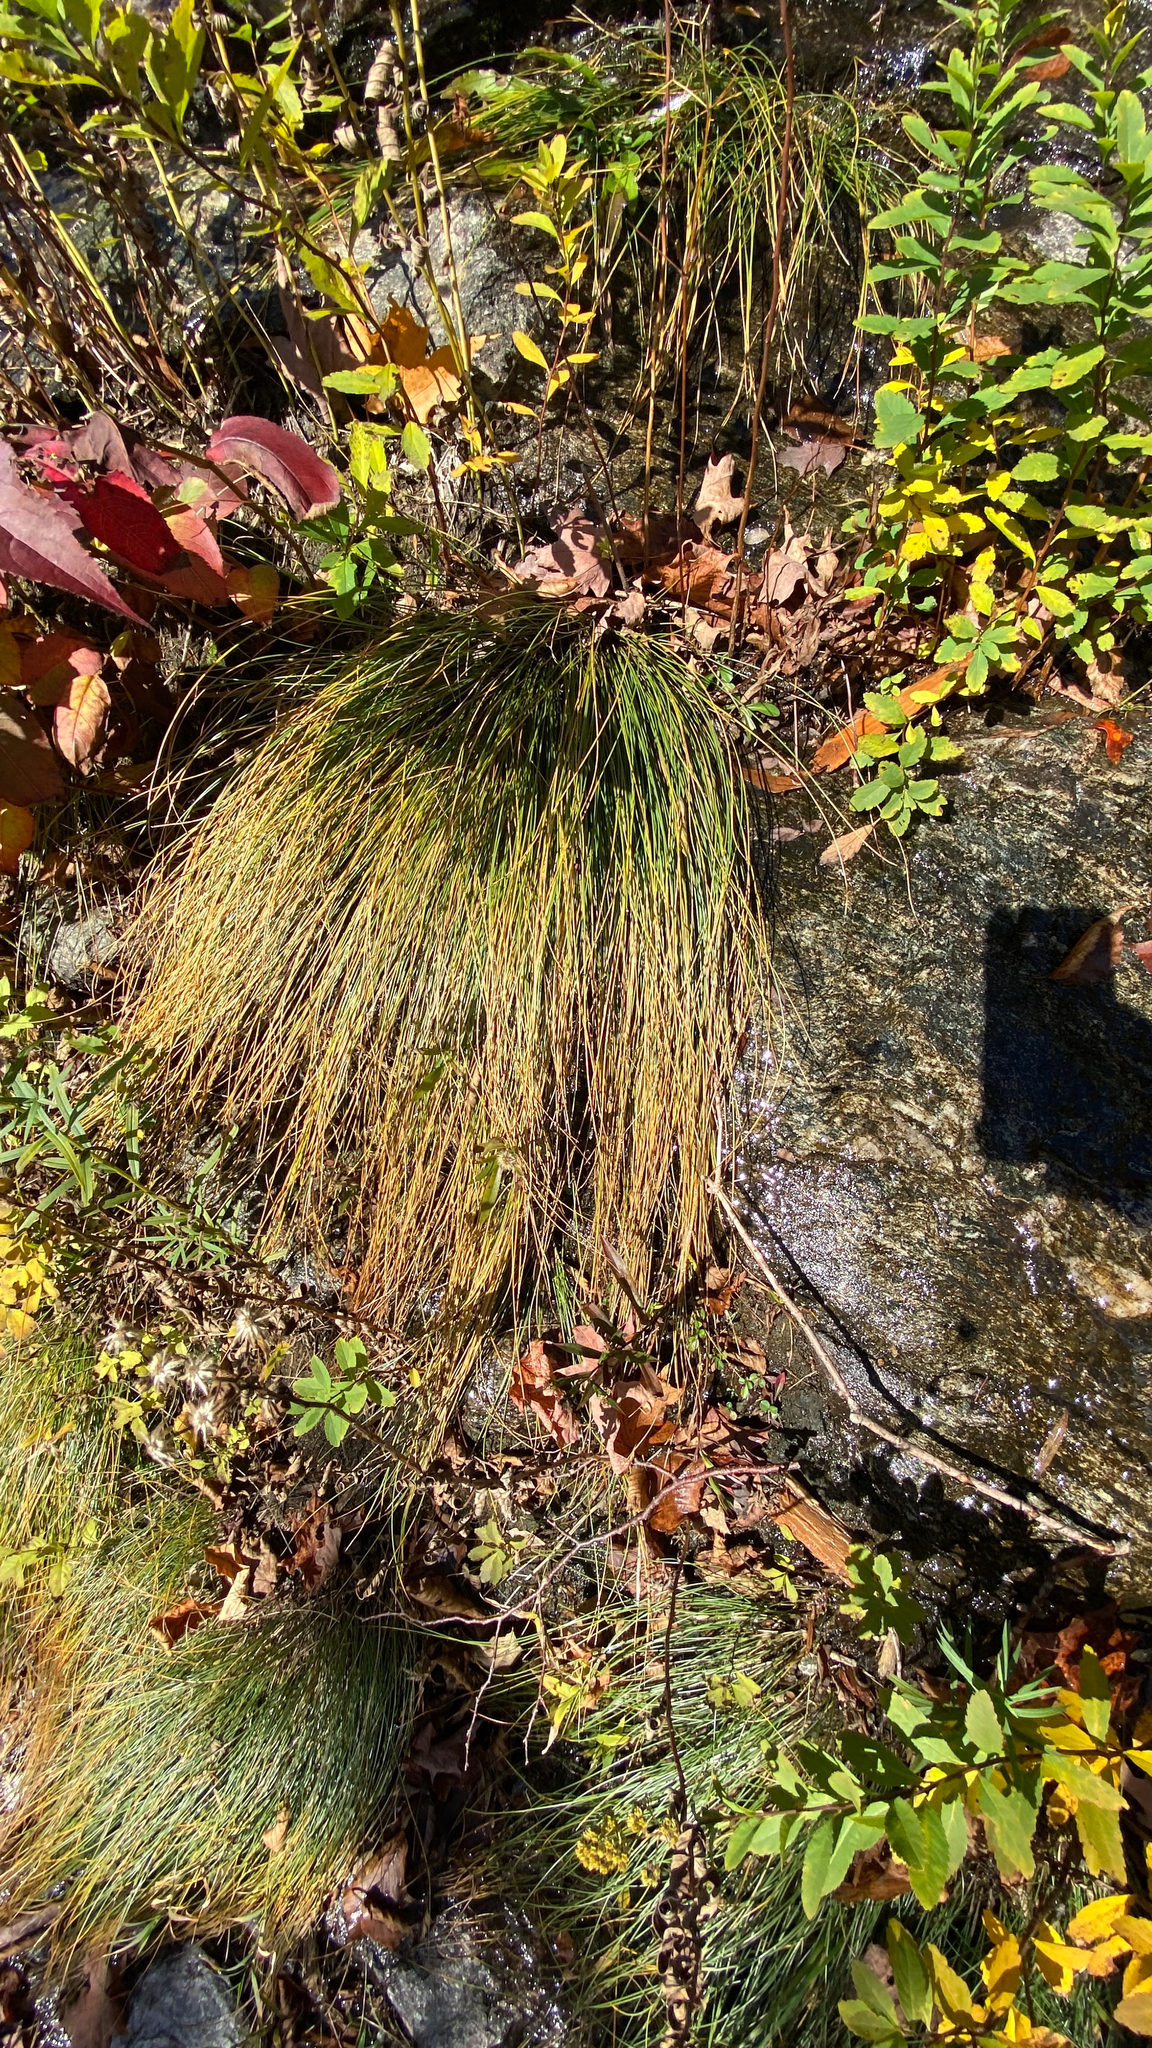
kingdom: Plantae
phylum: Tracheophyta
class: Liliopsida
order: Poales
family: Cyperaceae
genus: Trichophorum
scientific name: Trichophorum cespitosum
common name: Cespitose bulrush
